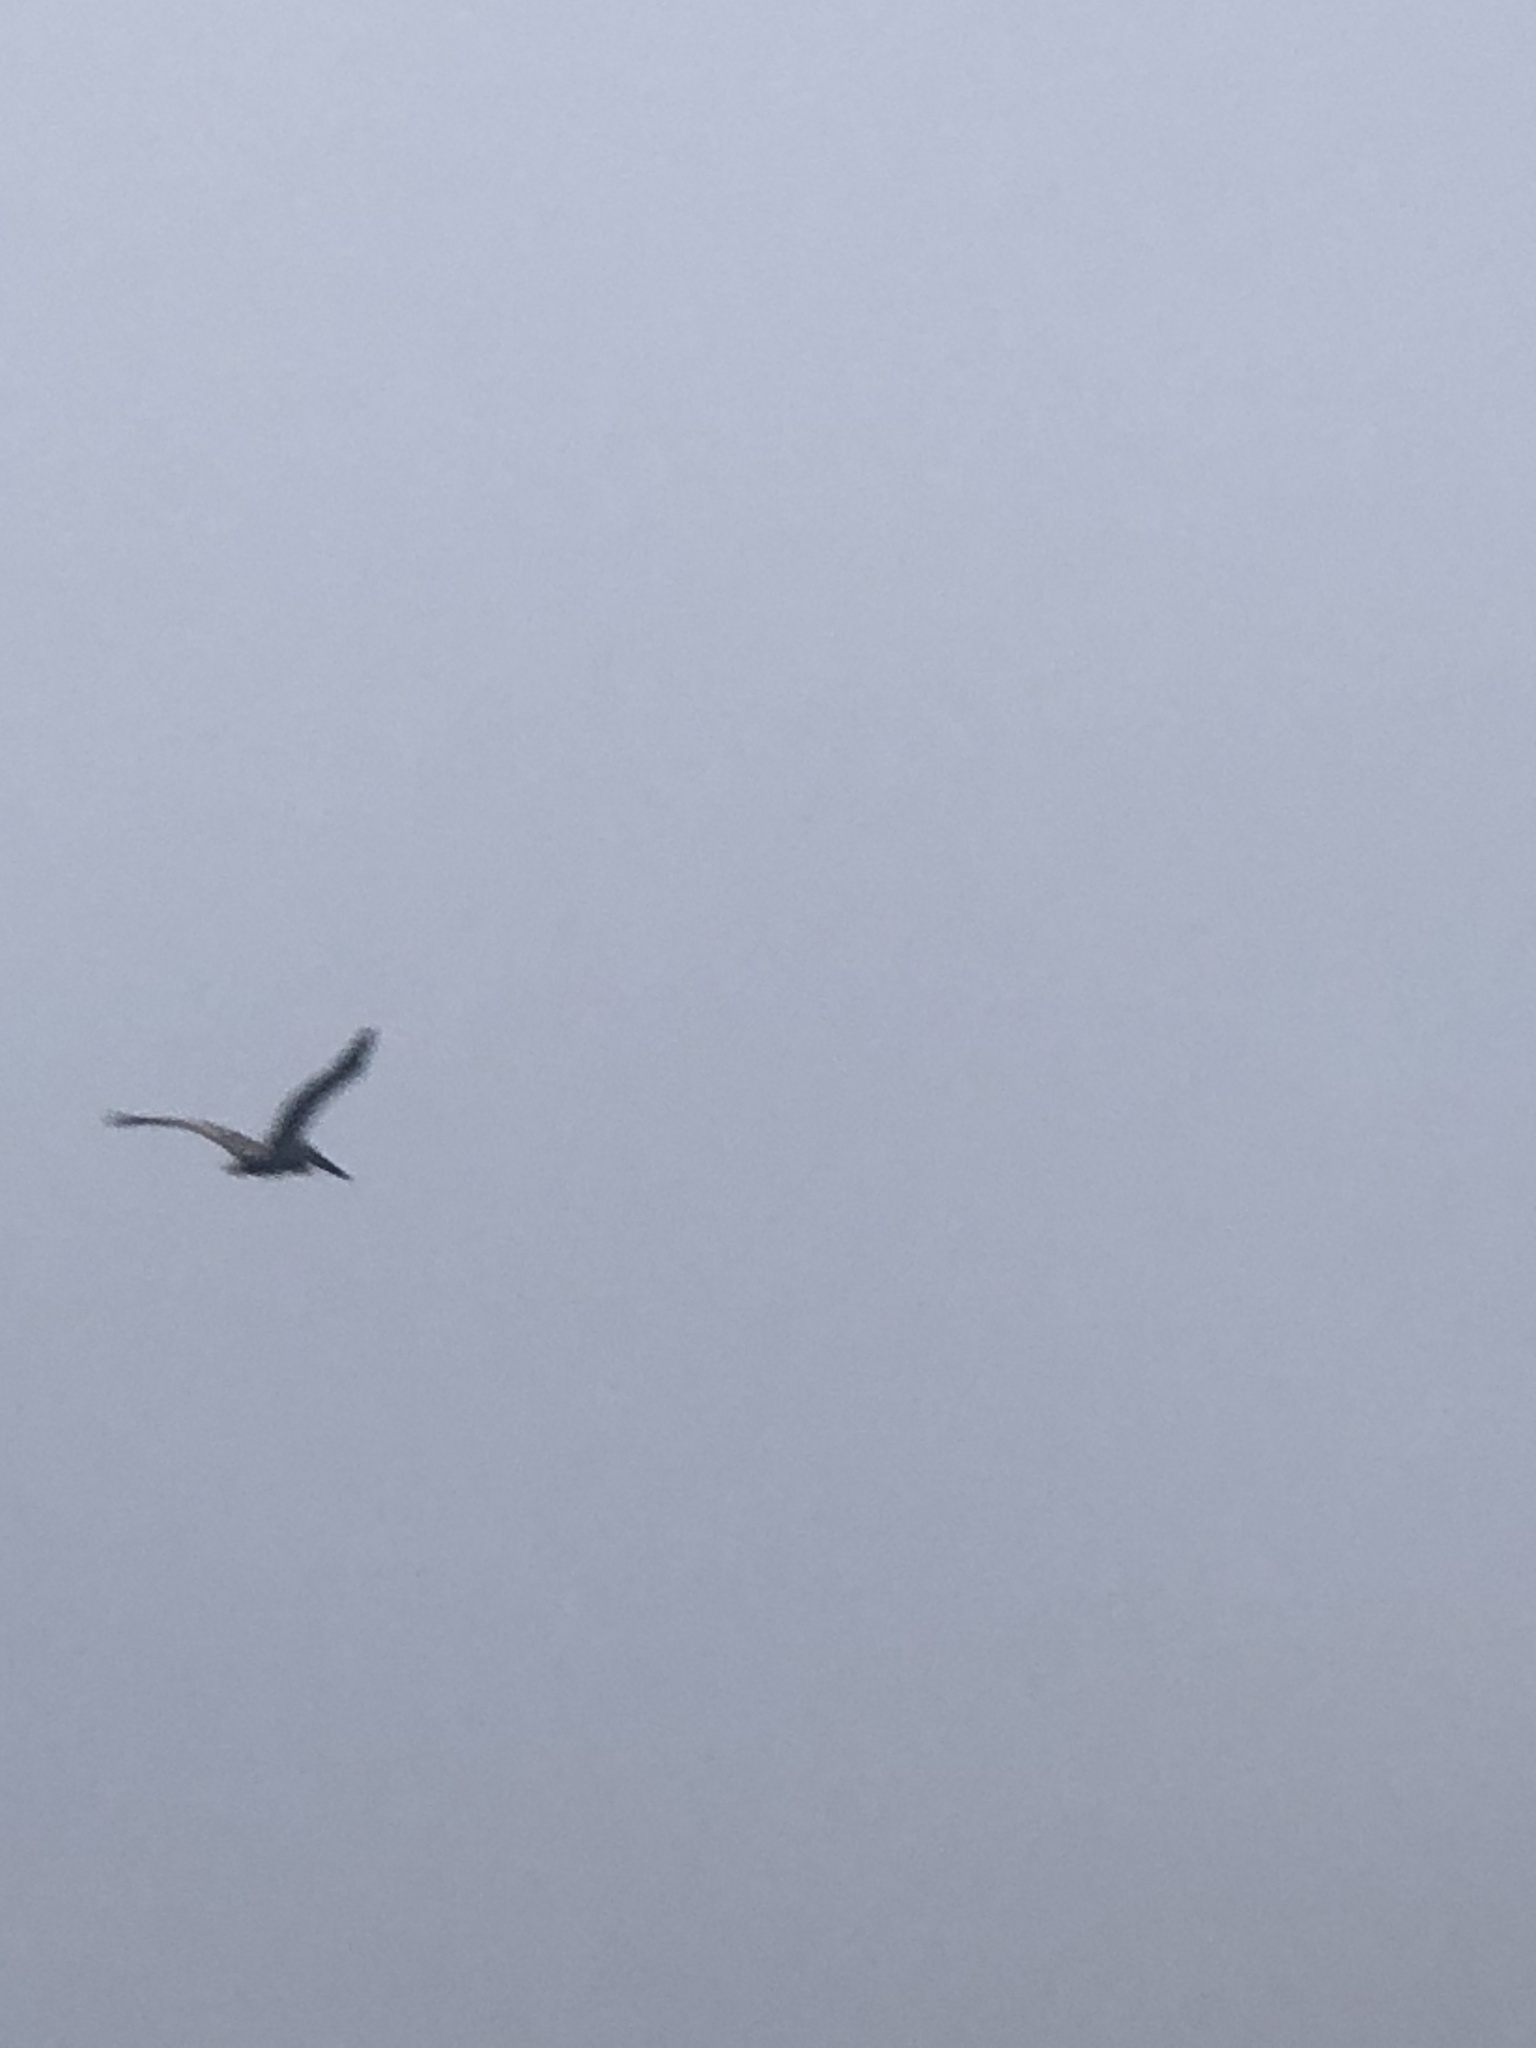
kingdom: Animalia
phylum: Chordata
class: Aves
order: Pelecaniformes
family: Pelecanidae
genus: Pelecanus
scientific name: Pelecanus occidentalis
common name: Brown pelican
